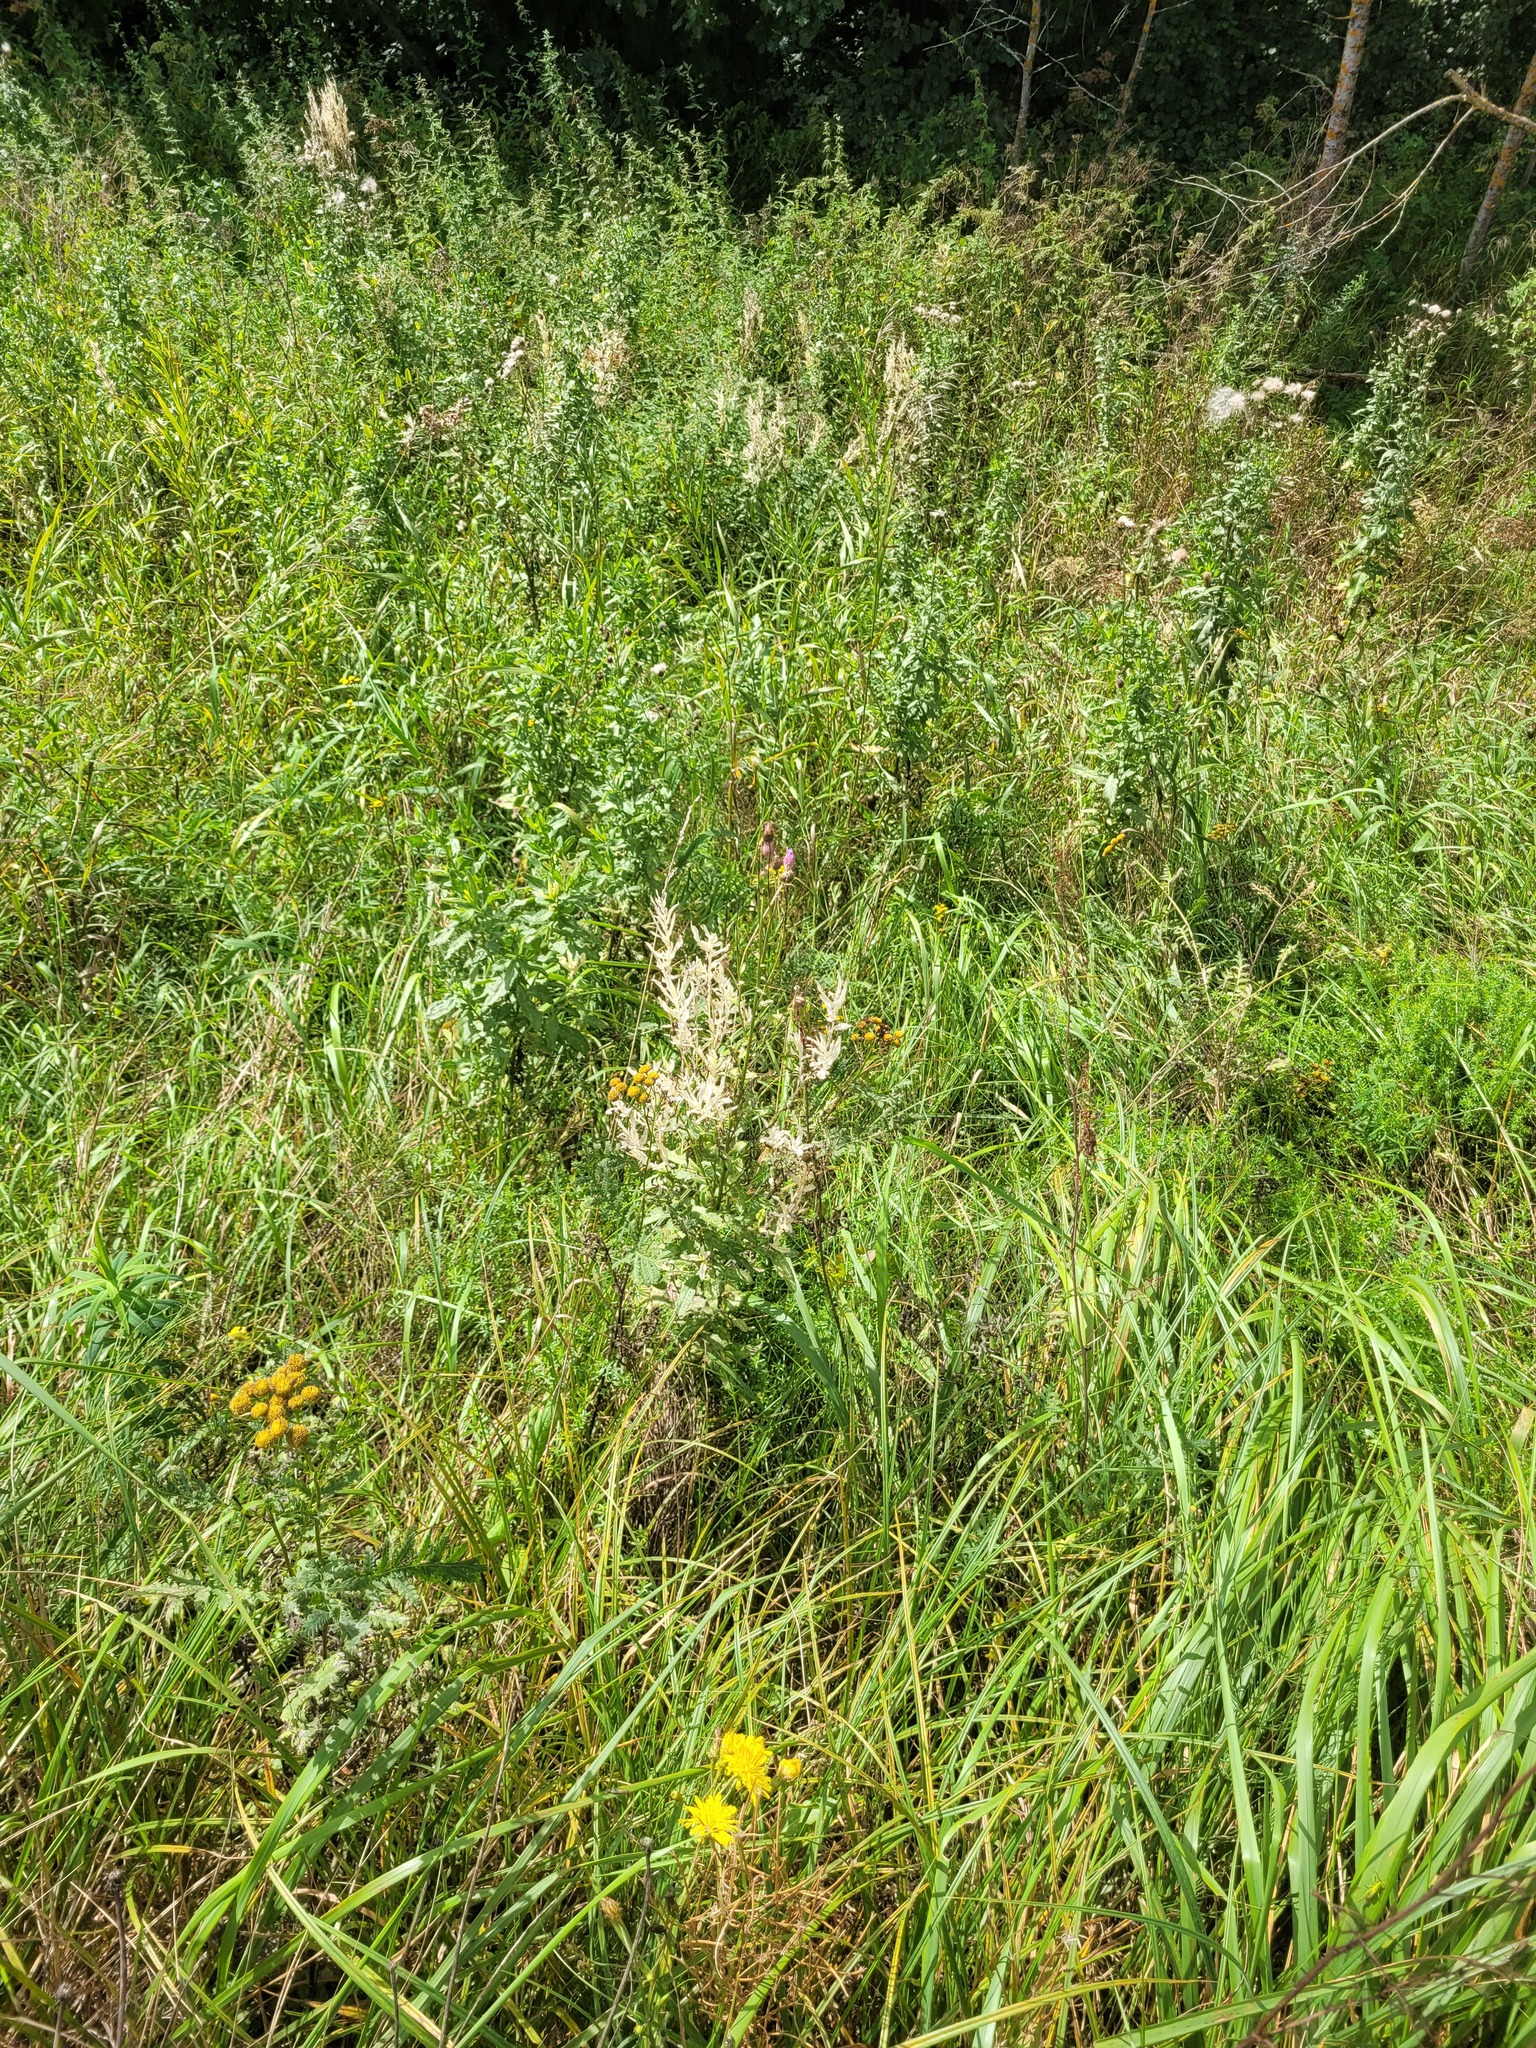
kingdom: Plantae
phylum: Tracheophyta
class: Magnoliopsida
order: Asterales
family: Asteraceae
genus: Cirsium
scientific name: Cirsium arvense
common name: Creeping thistle
